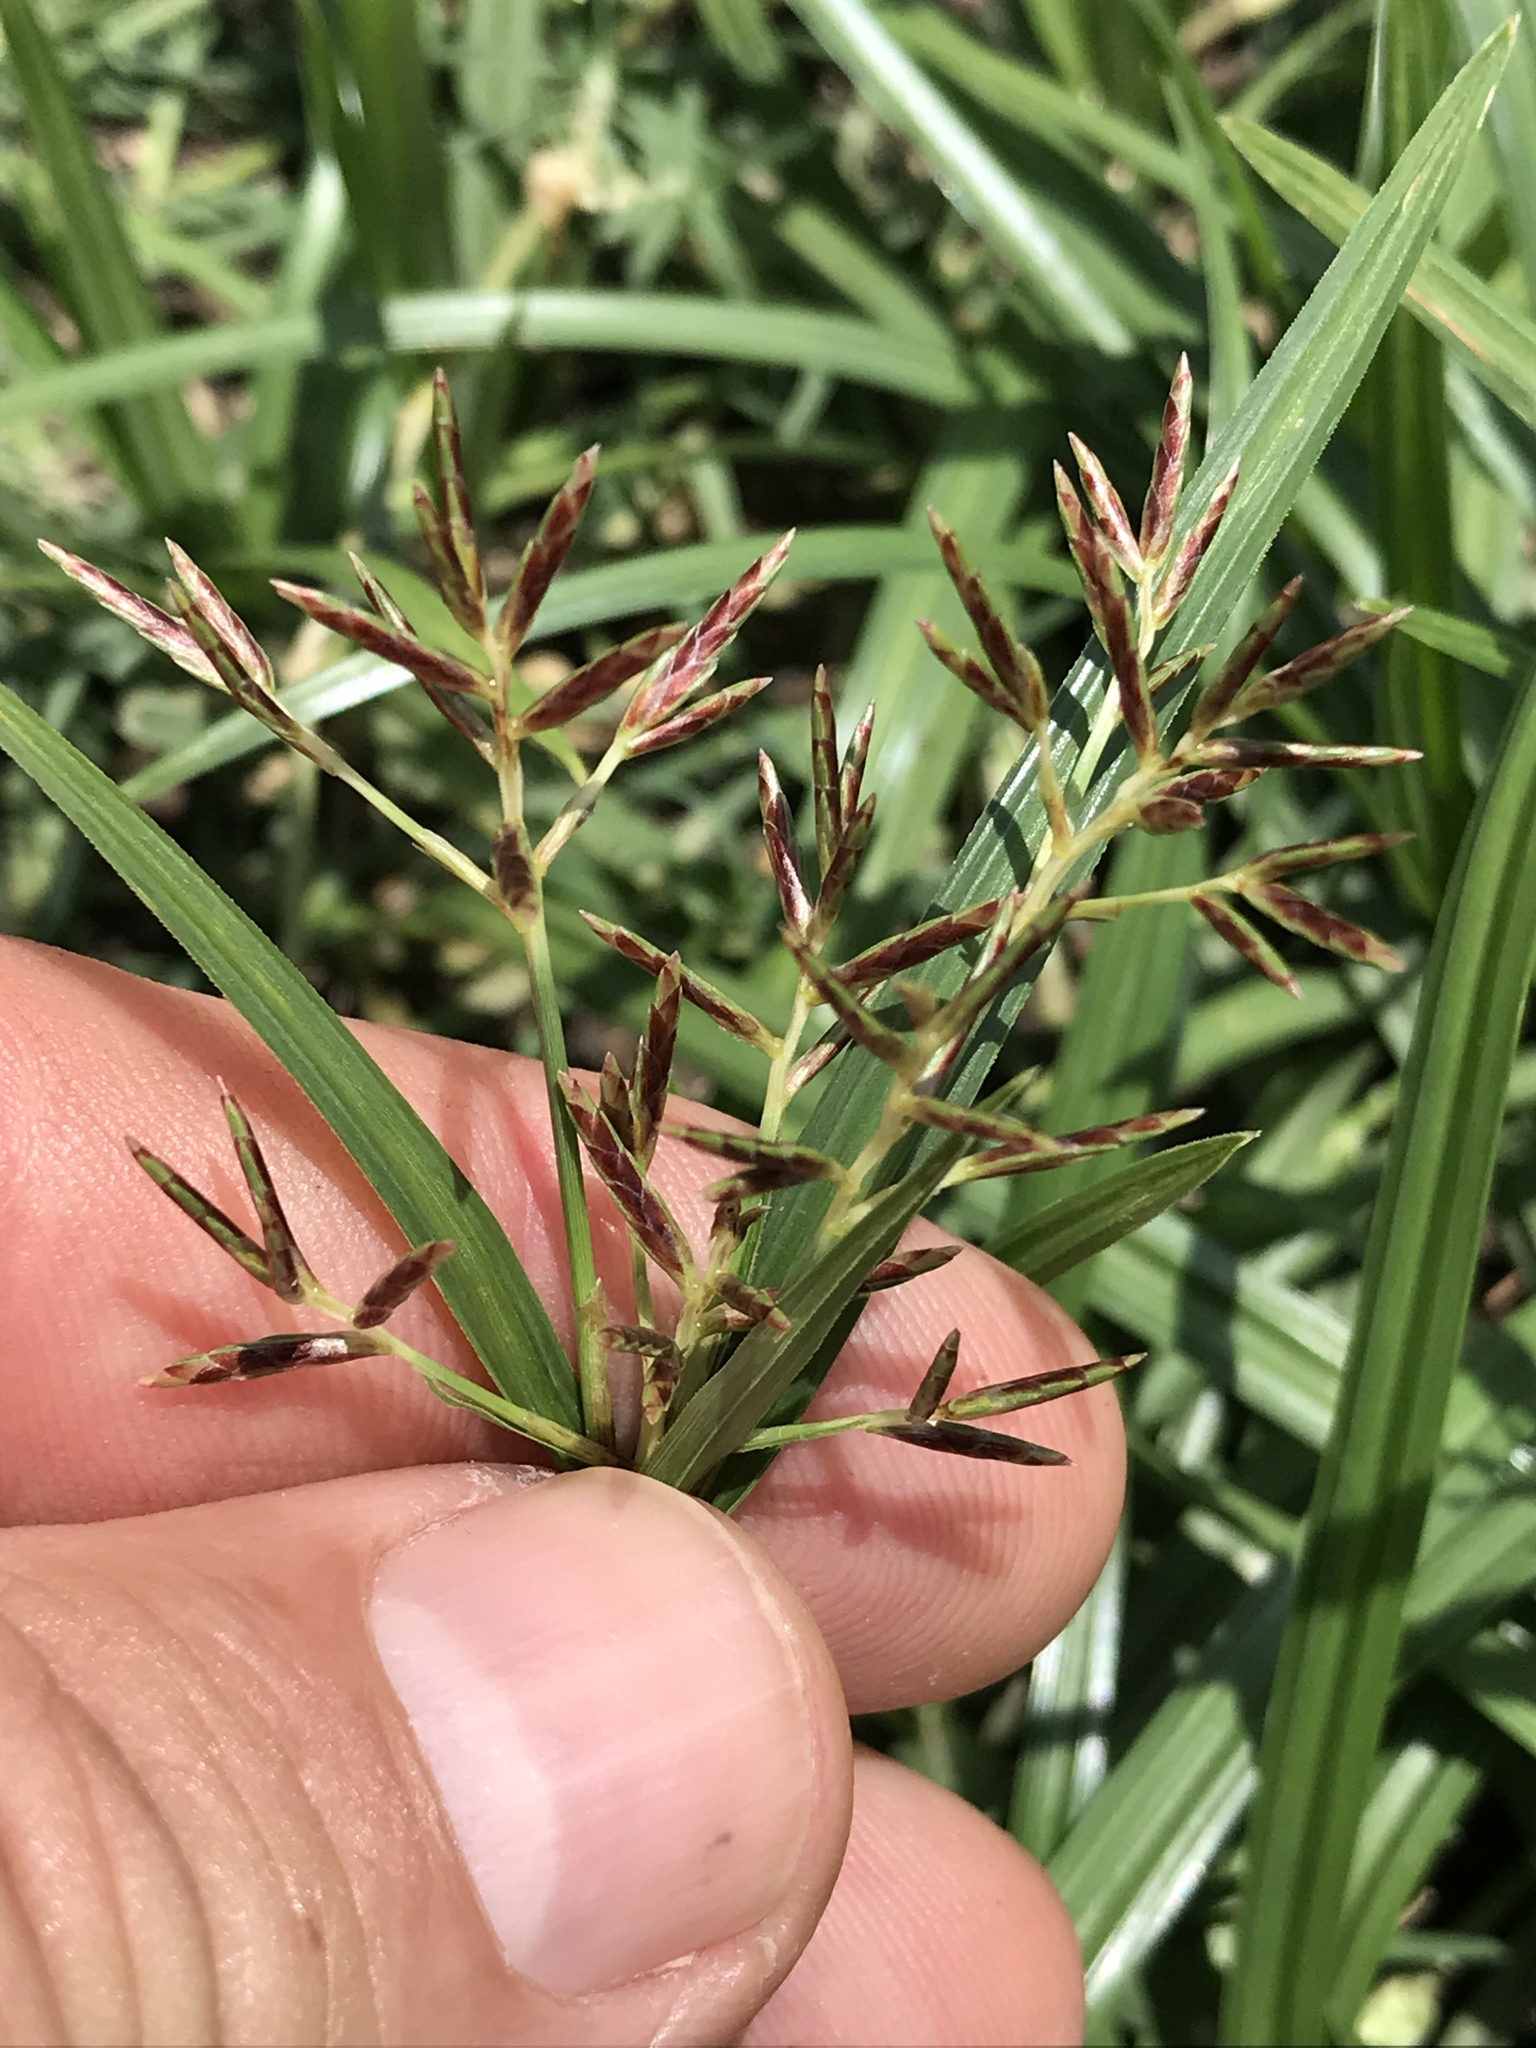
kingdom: Plantae
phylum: Tracheophyta
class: Liliopsida
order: Poales
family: Cyperaceae
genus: Cyperus
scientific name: Cyperus rotundus
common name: Nutgrass
